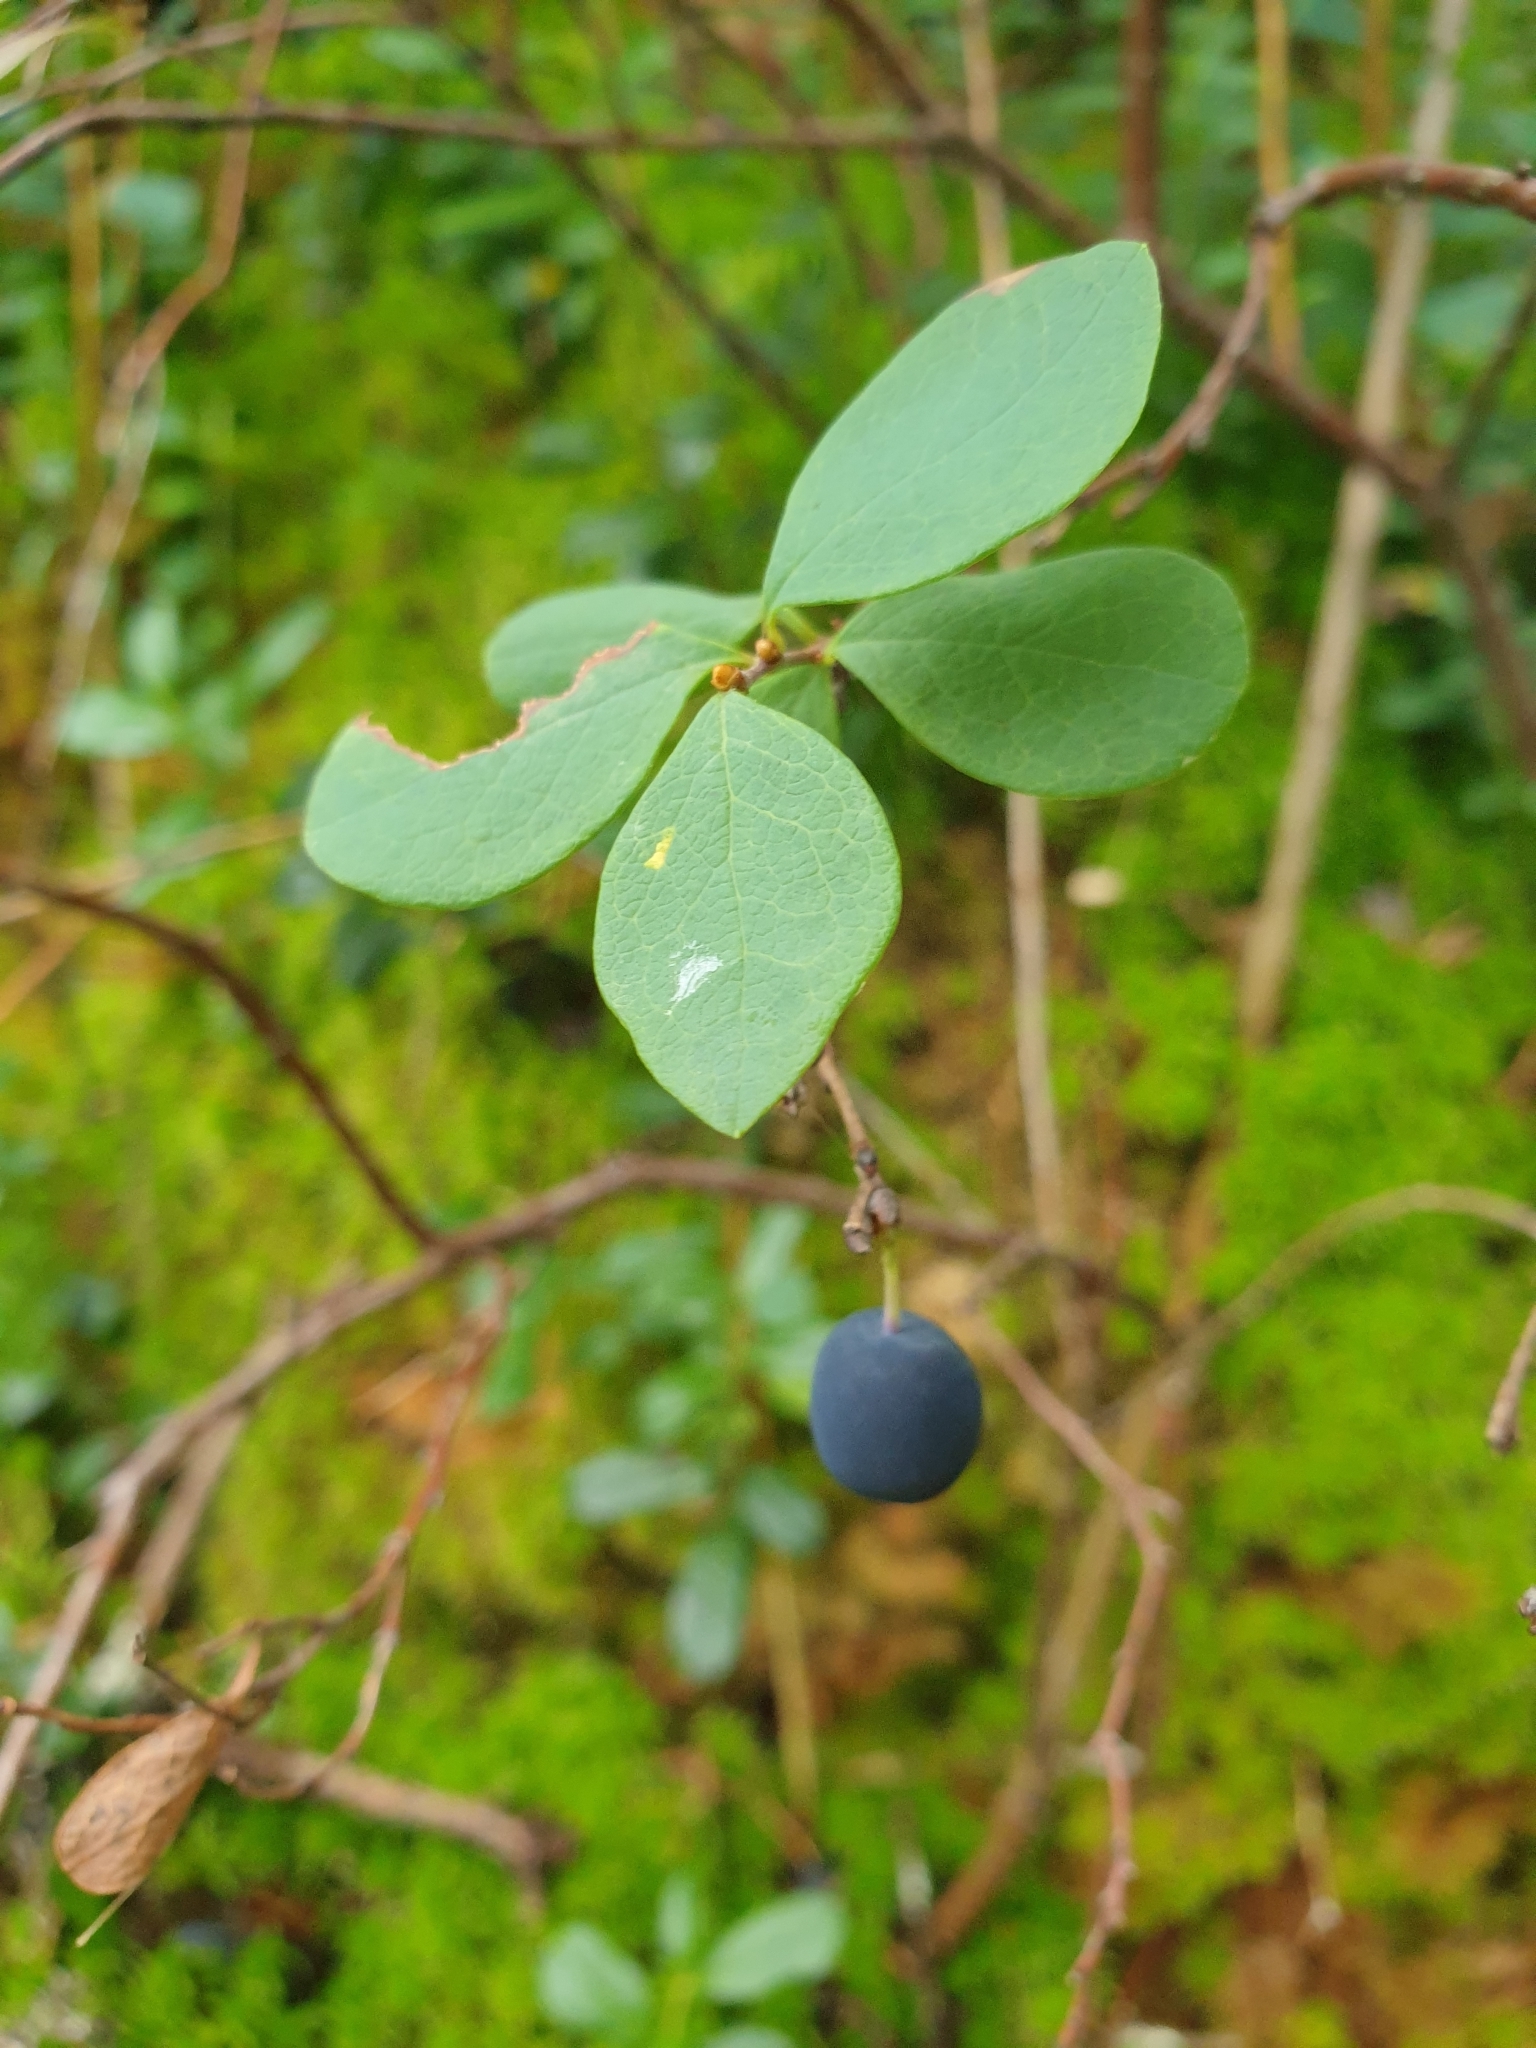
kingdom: Plantae
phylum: Tracheophyta
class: Magnoliopsida
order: Ericales
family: Ericaceae
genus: Vaccinium
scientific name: Vaccinium uliginosum
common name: Bog bilberry
